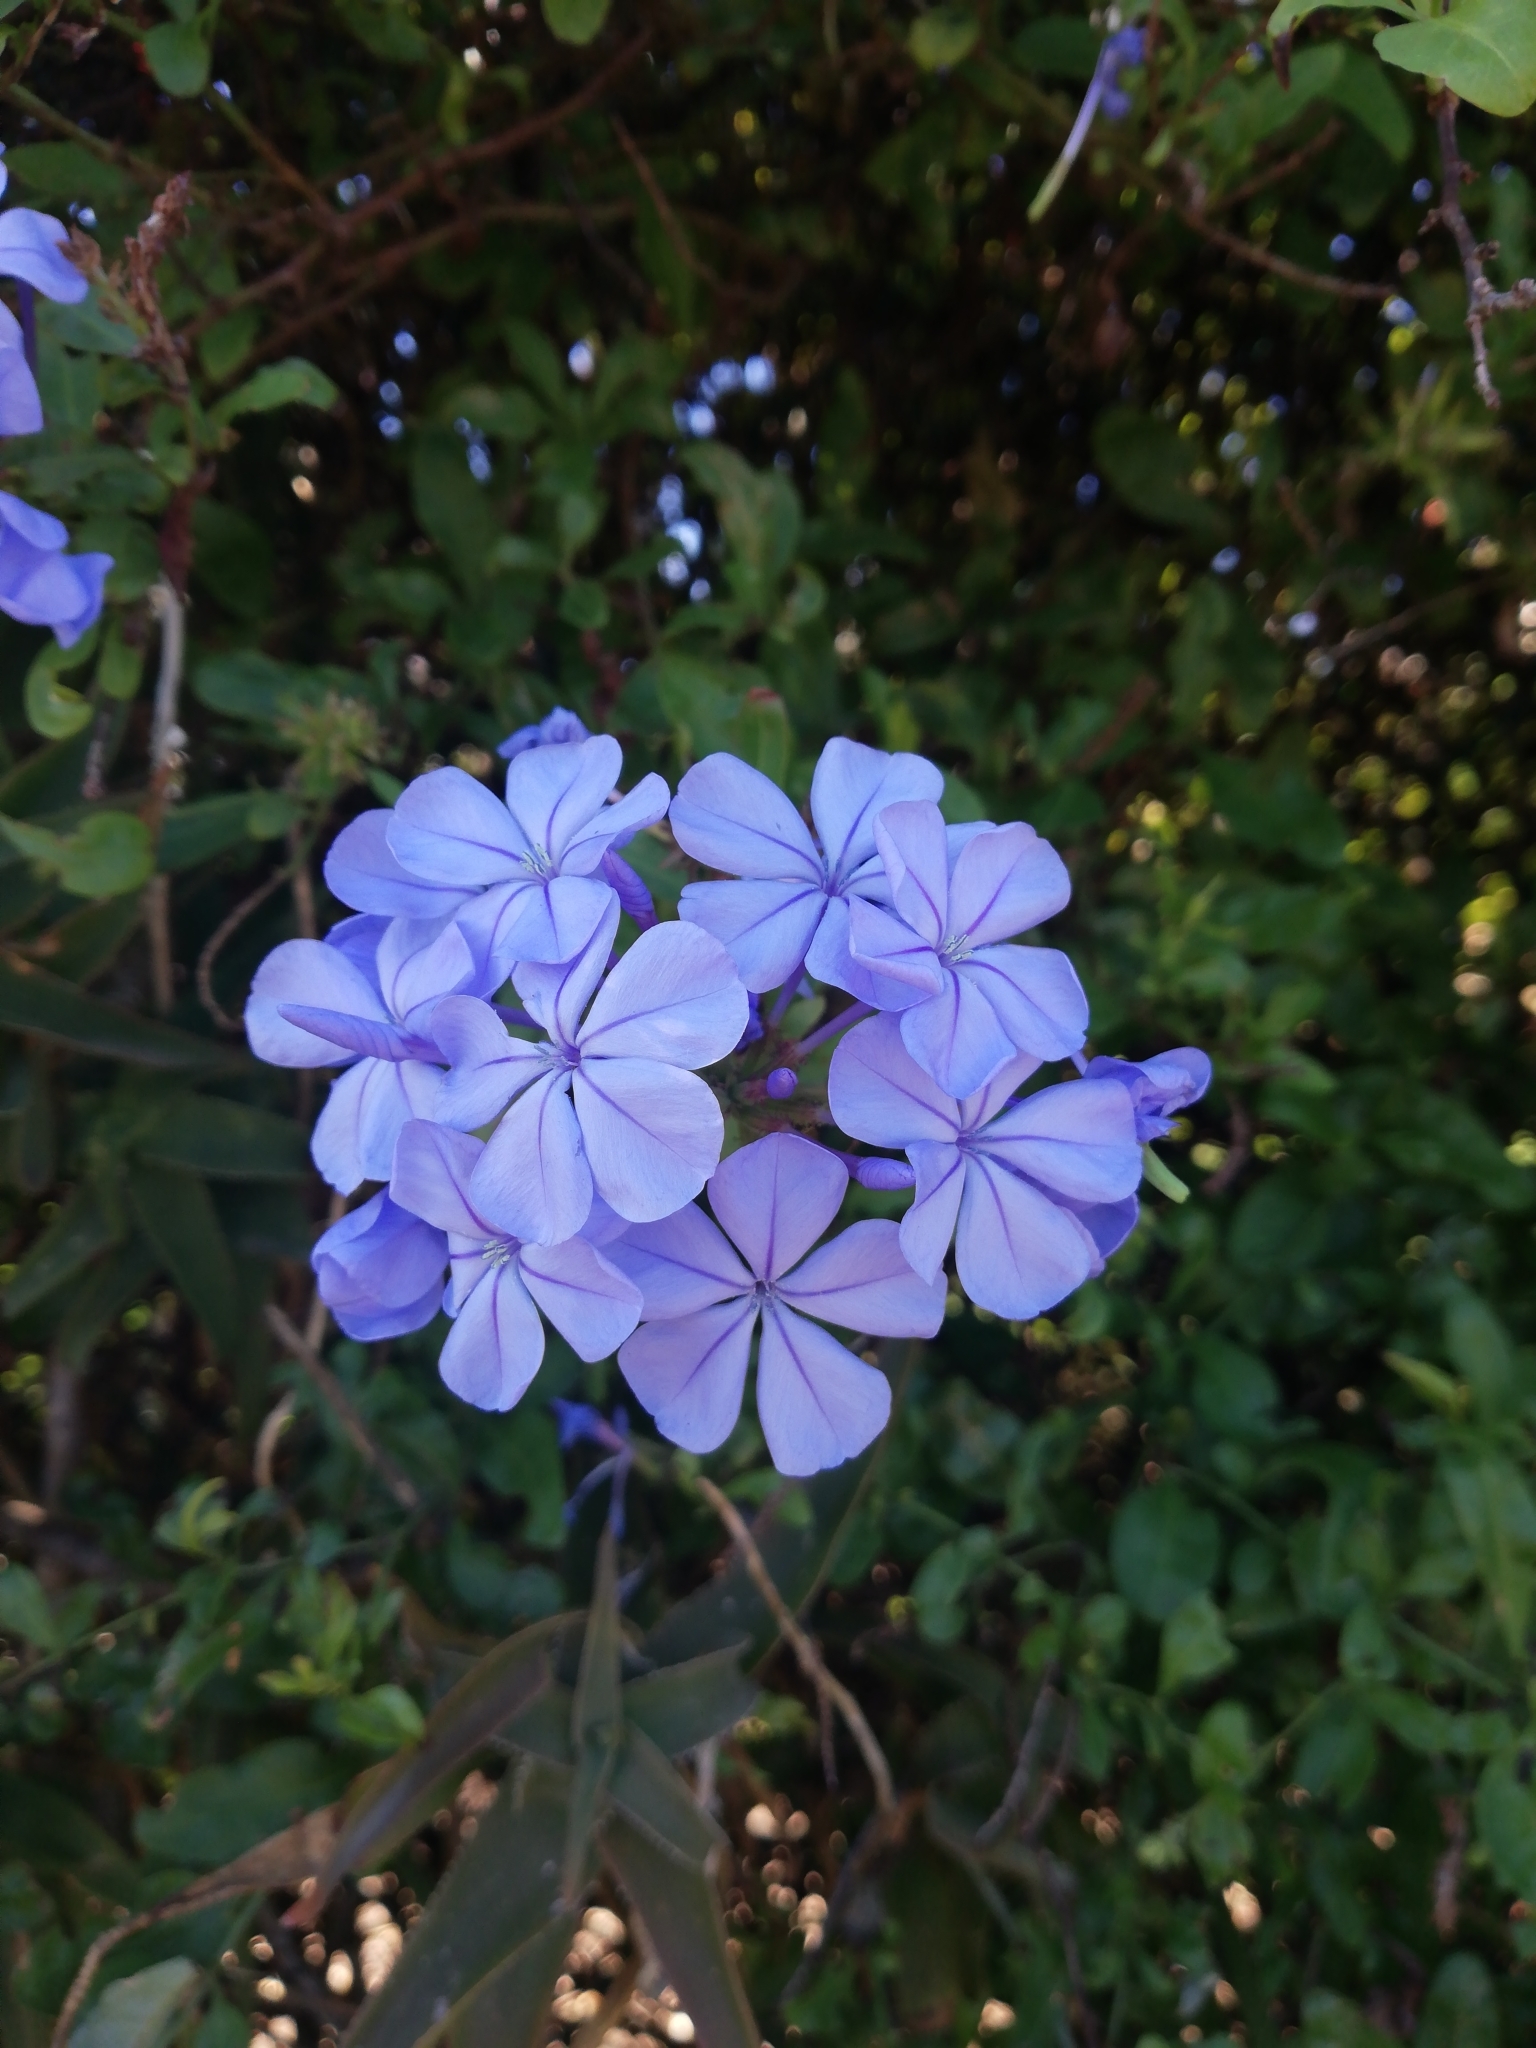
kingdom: Plantae
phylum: Tracheophyta
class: Magnoliopsida
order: Caryophyllales
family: Plumbaginaceae
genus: Plumbago
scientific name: Plumbago auriculata
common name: Cape leadwort
